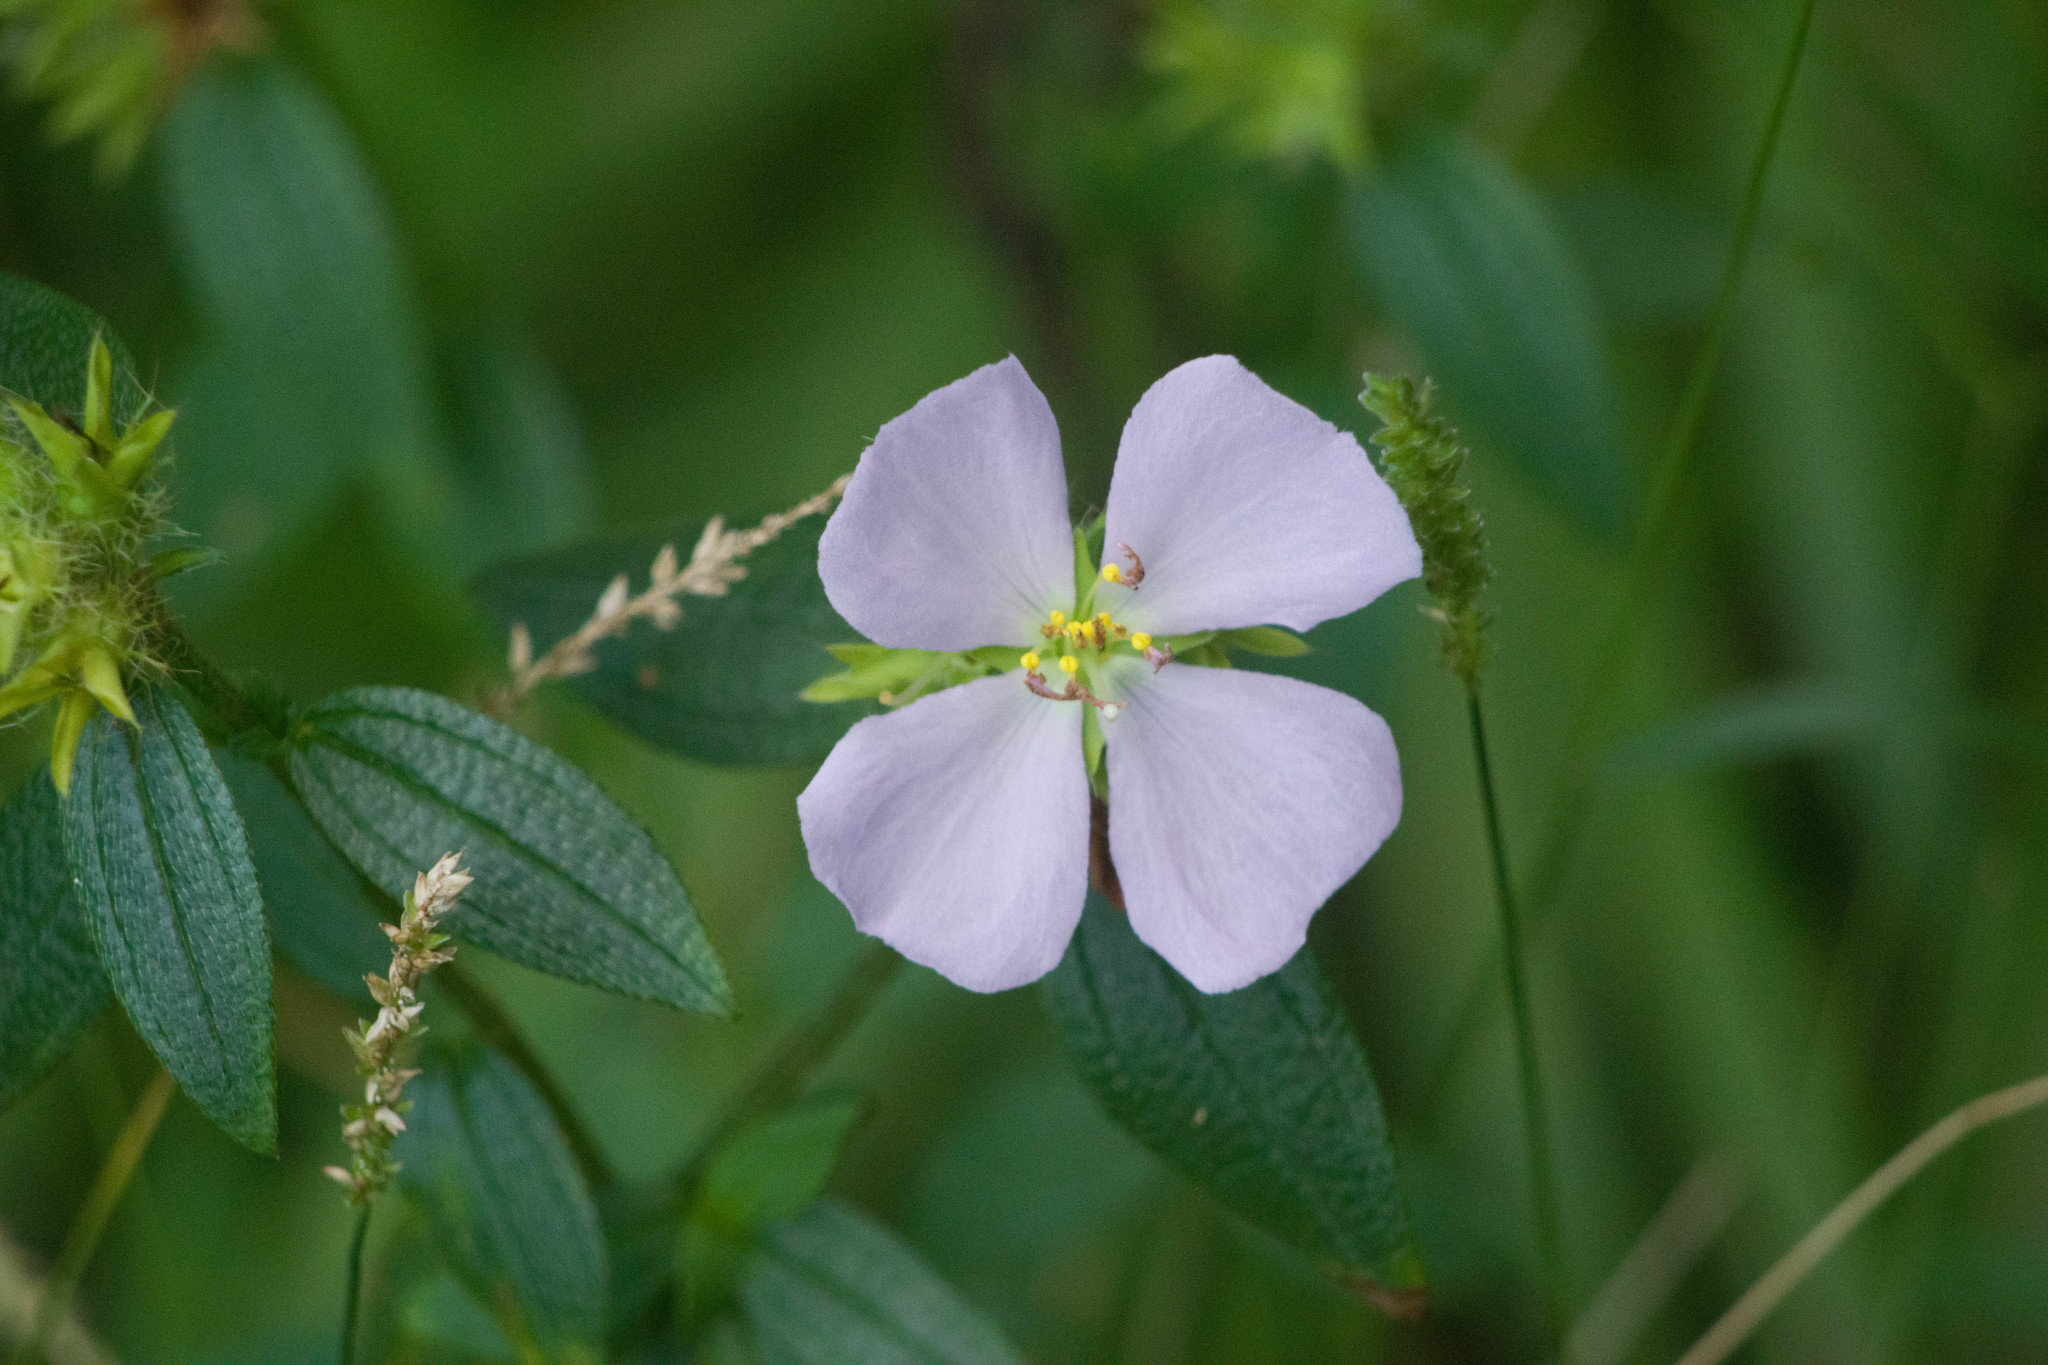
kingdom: Plantae
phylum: Tracheophyta
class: Magnoliopsida
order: Myrtales
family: Melastomataceae
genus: Pterolepis
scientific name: Pterolepis glomerata
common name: False meadowbeauty
